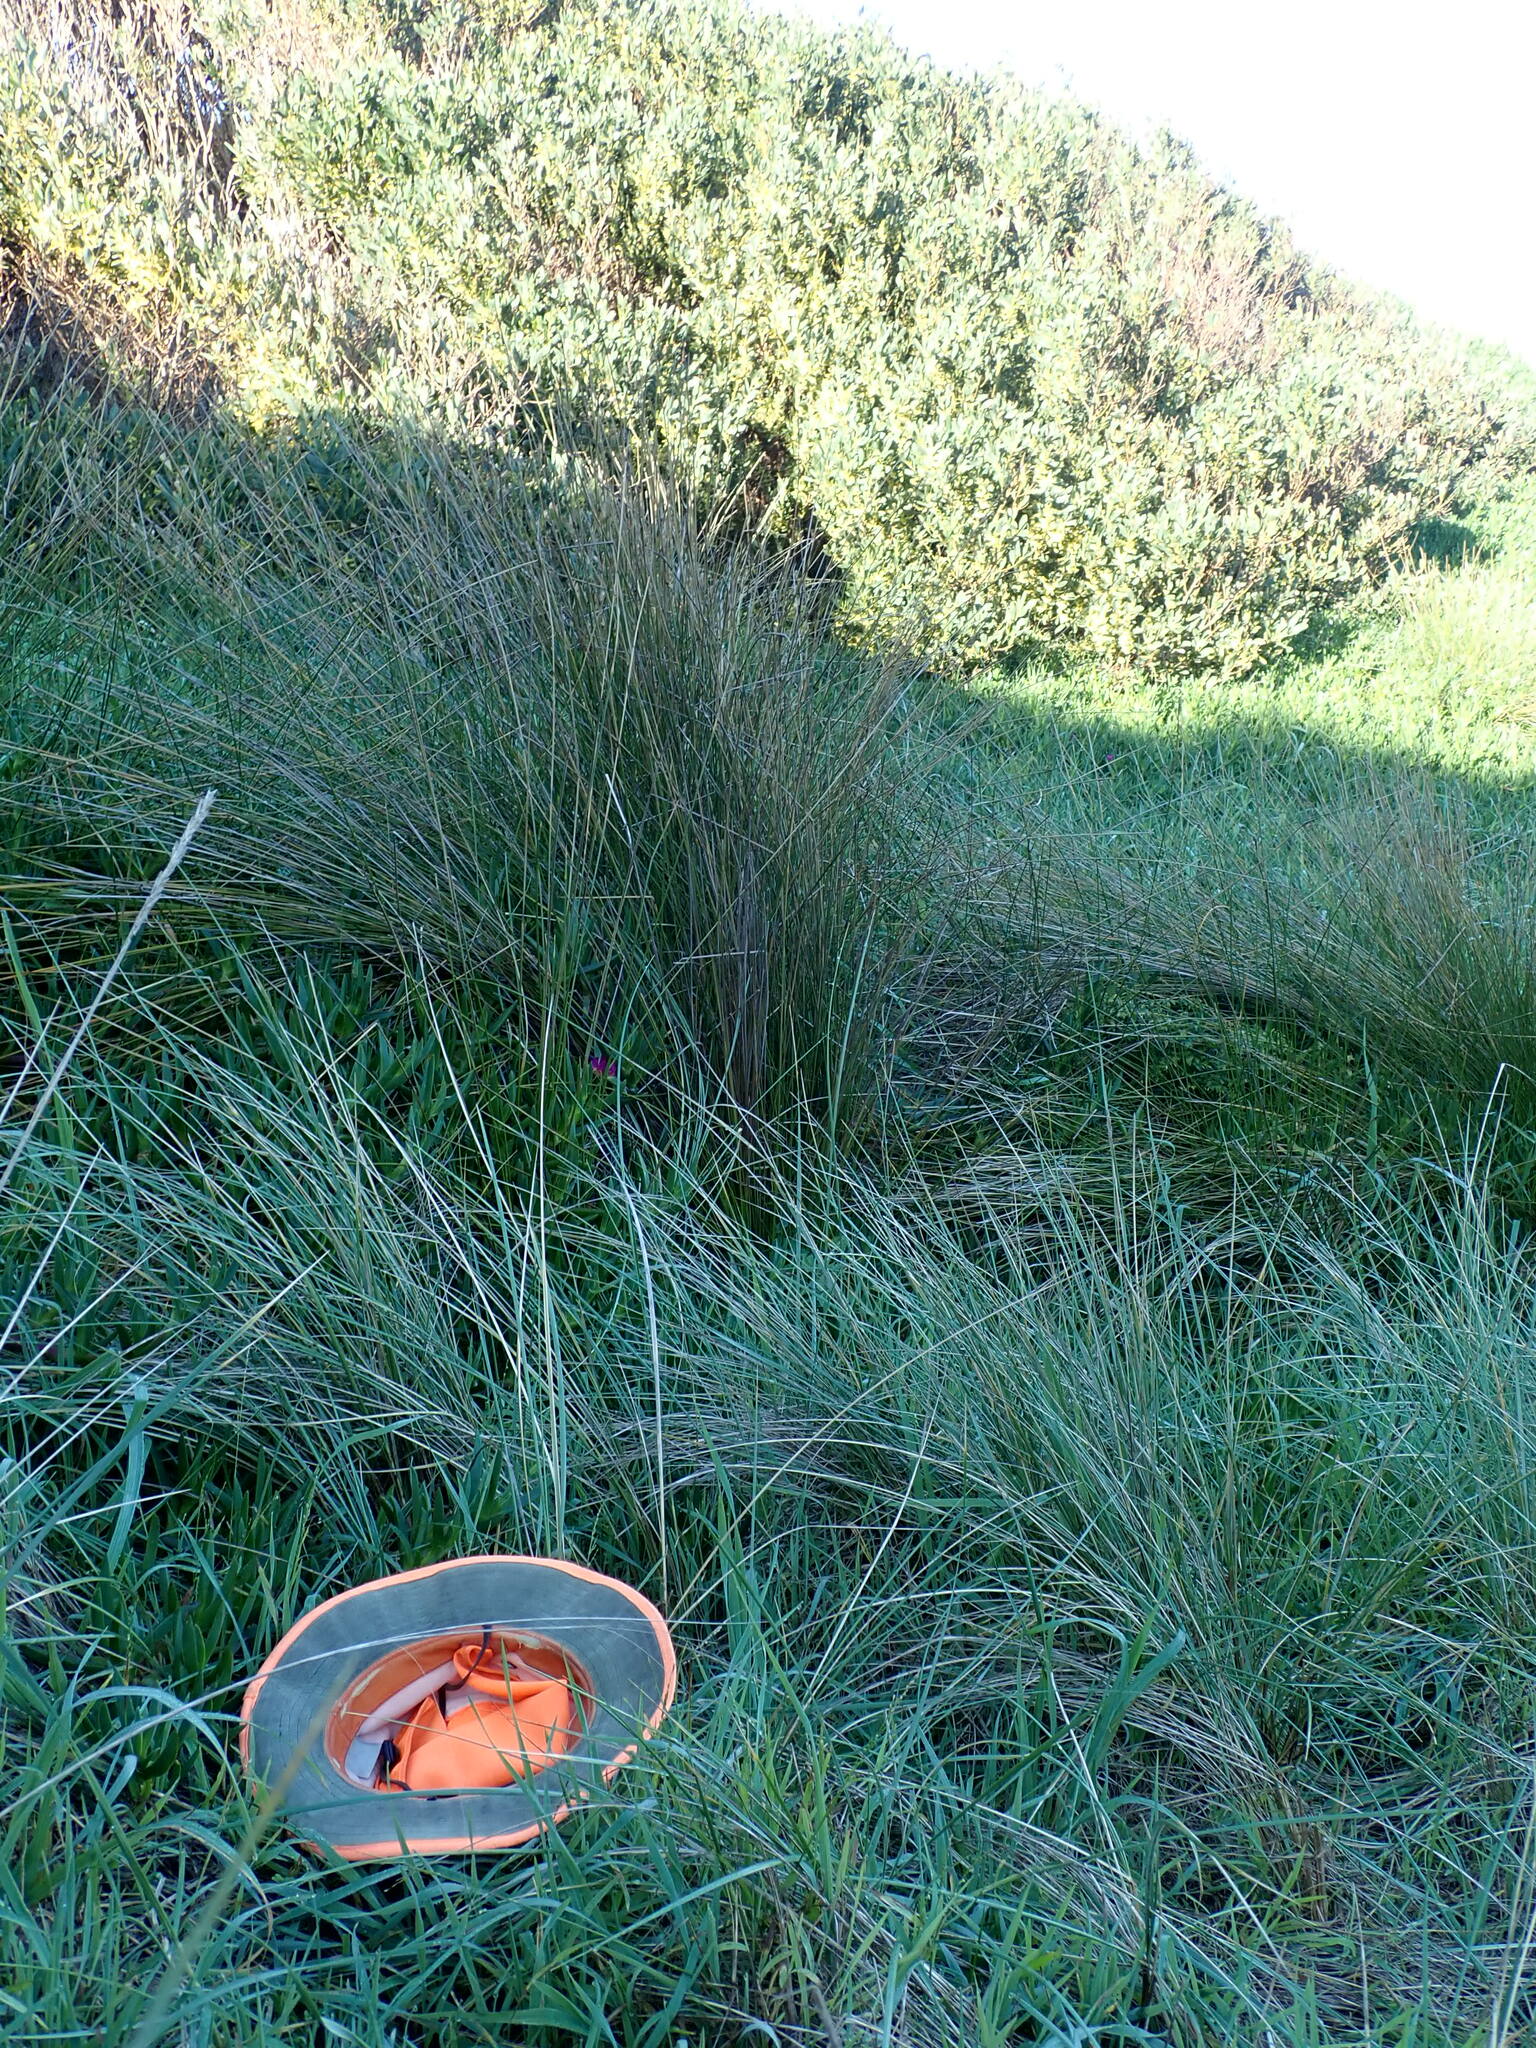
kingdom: Animalia
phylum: Mollusca
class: Gastropoda
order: Stylommatophora
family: Helicidae
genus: Cornu
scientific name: Cornu aspersum
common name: Brown garden snail
